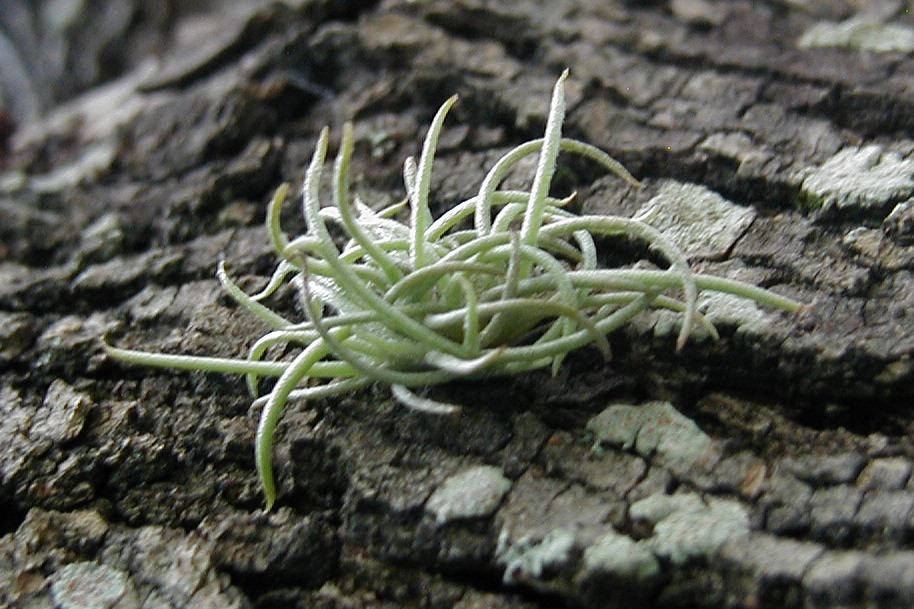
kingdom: Plantae
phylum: Tracheophyta
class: Liliopsida
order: Poales
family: Bromeliaceae
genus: Tillandsia
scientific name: Tillandsia recurvata
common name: Small ballmoss
